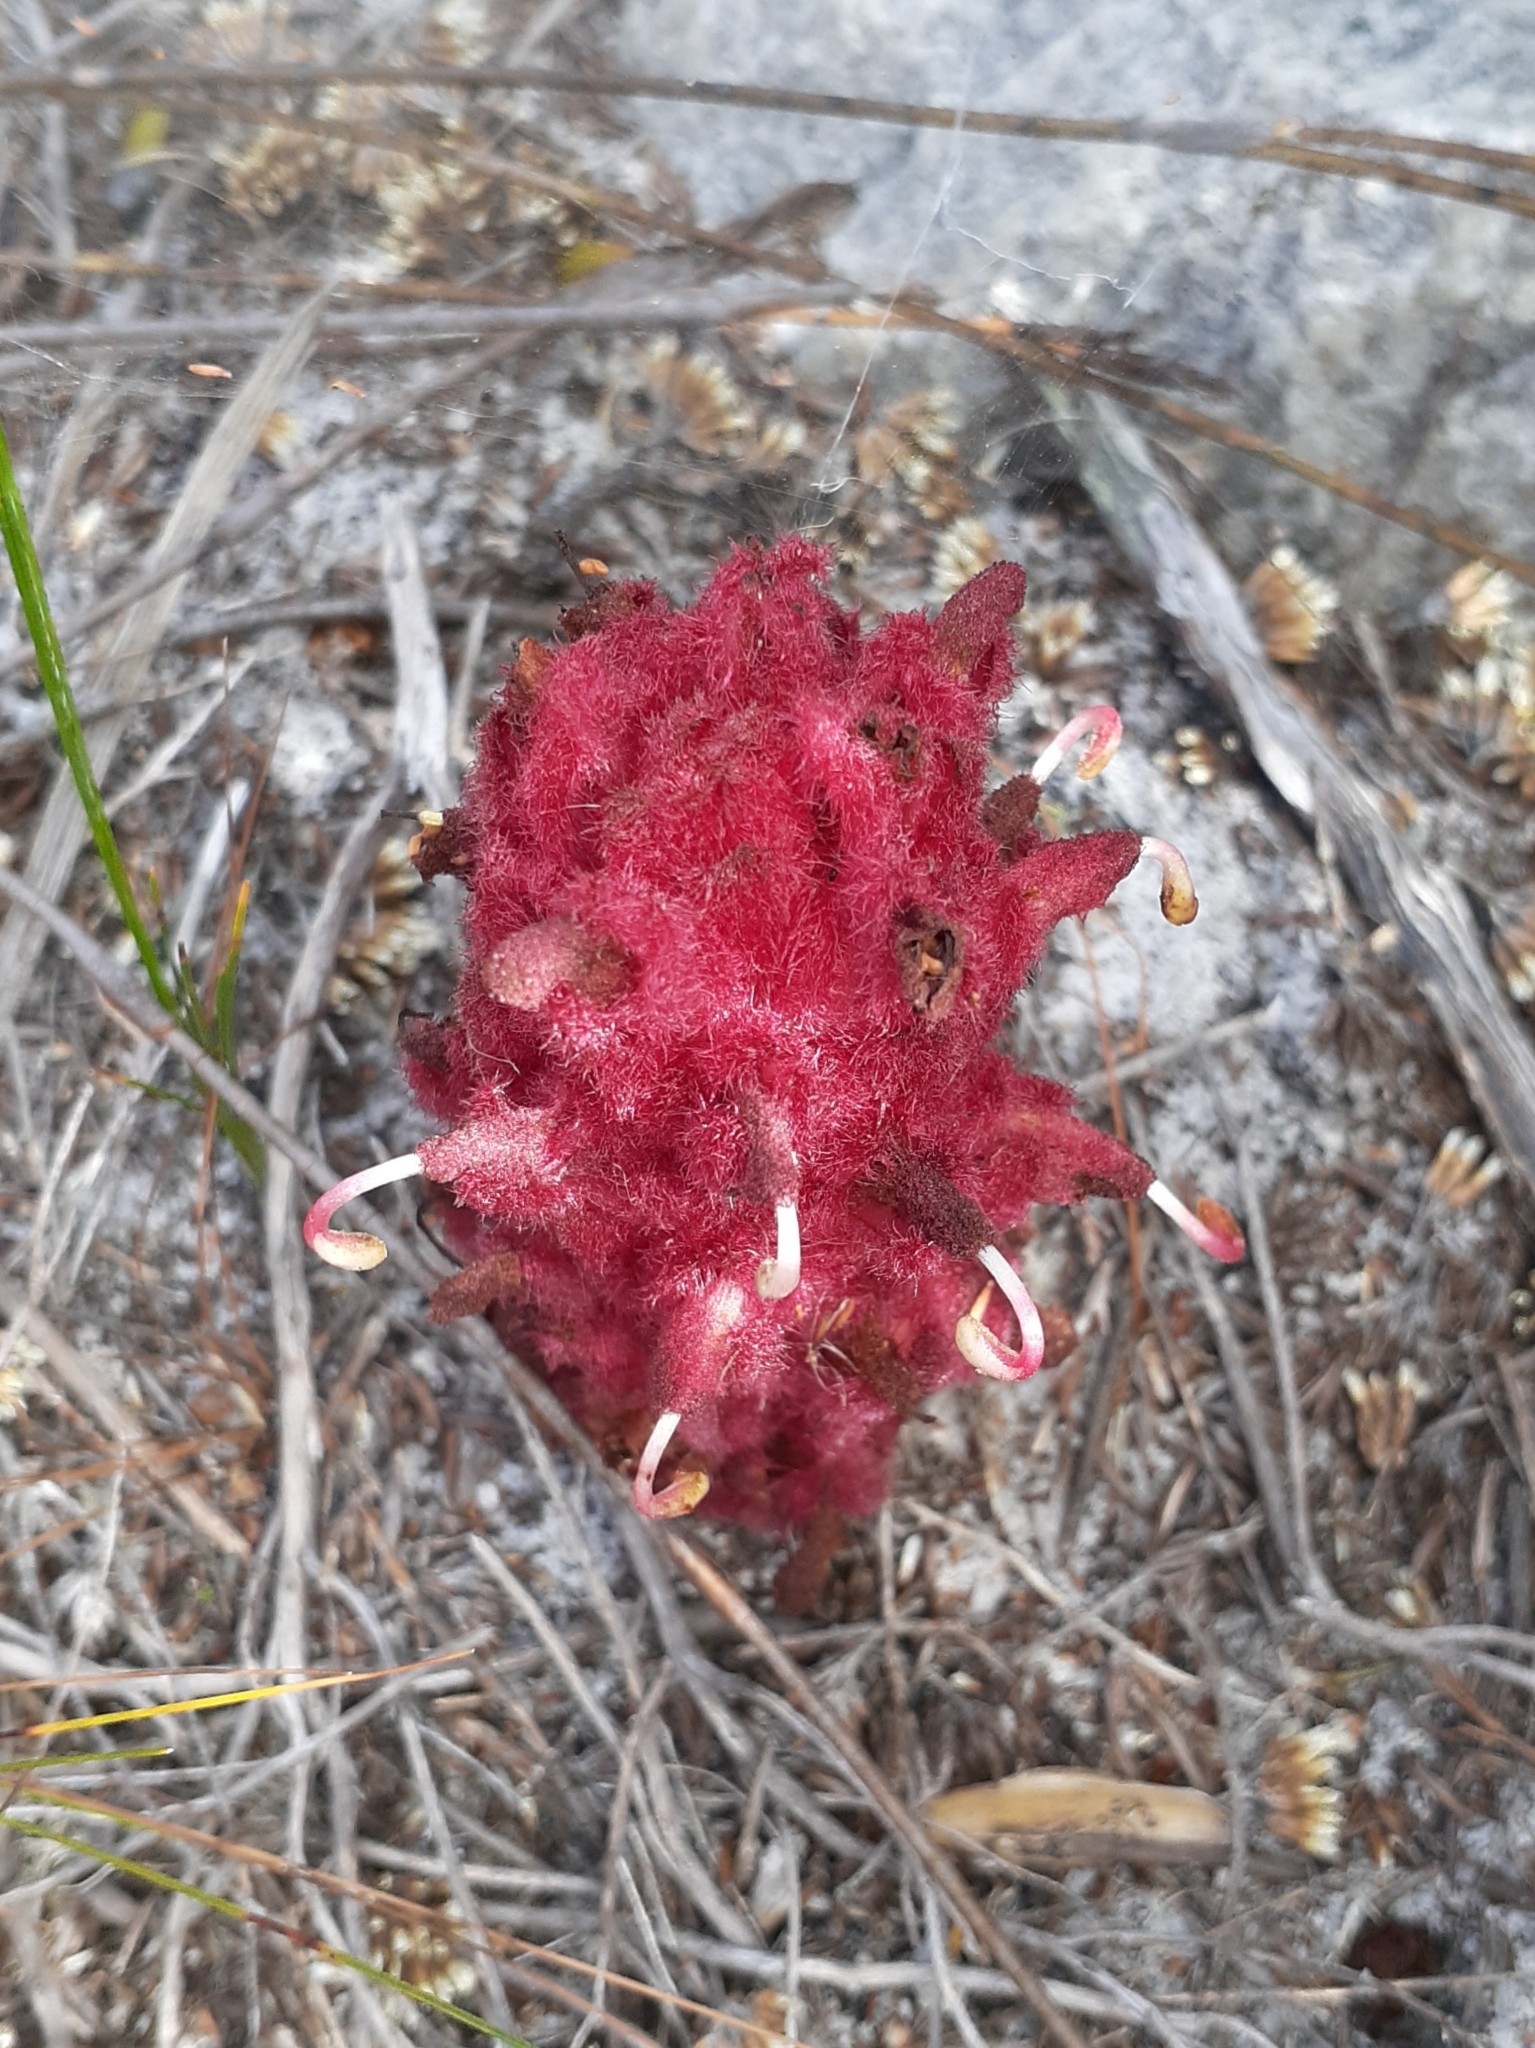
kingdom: Plantae
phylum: Tracheophyta
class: Magnoliopsida
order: Lamiales
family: Orobanchaceae
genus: Hyobanche
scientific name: Hyobanche sanguinea
